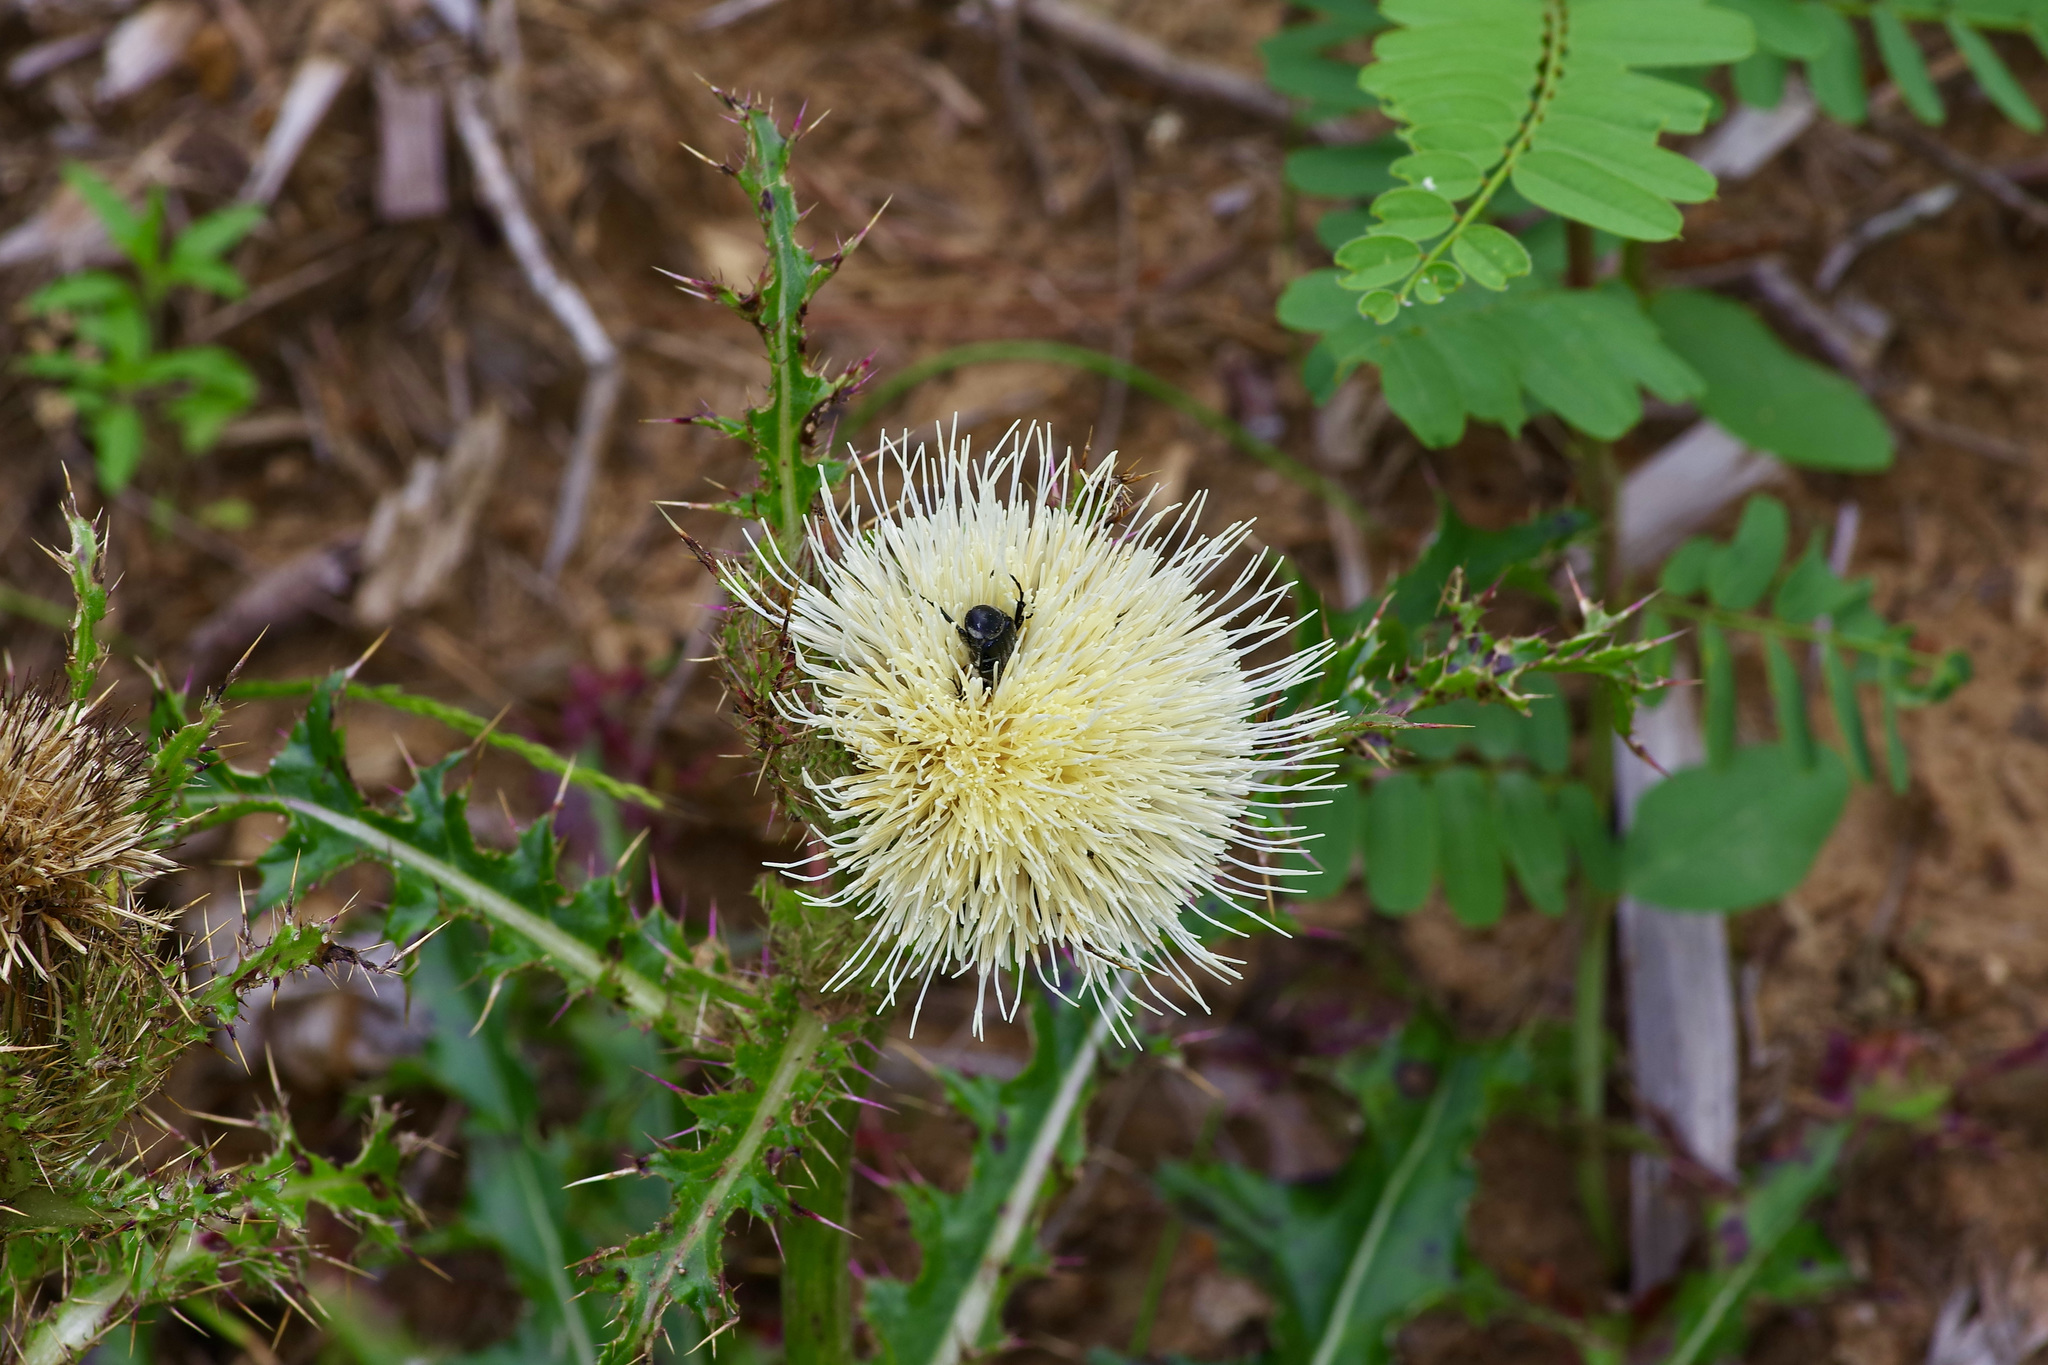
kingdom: Plantae
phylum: Tracheophyta
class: Magnoliopsida
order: Asterales
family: Asteraceae
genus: Cirsium
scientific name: Cirsium horridulum
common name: Bristly thistle
